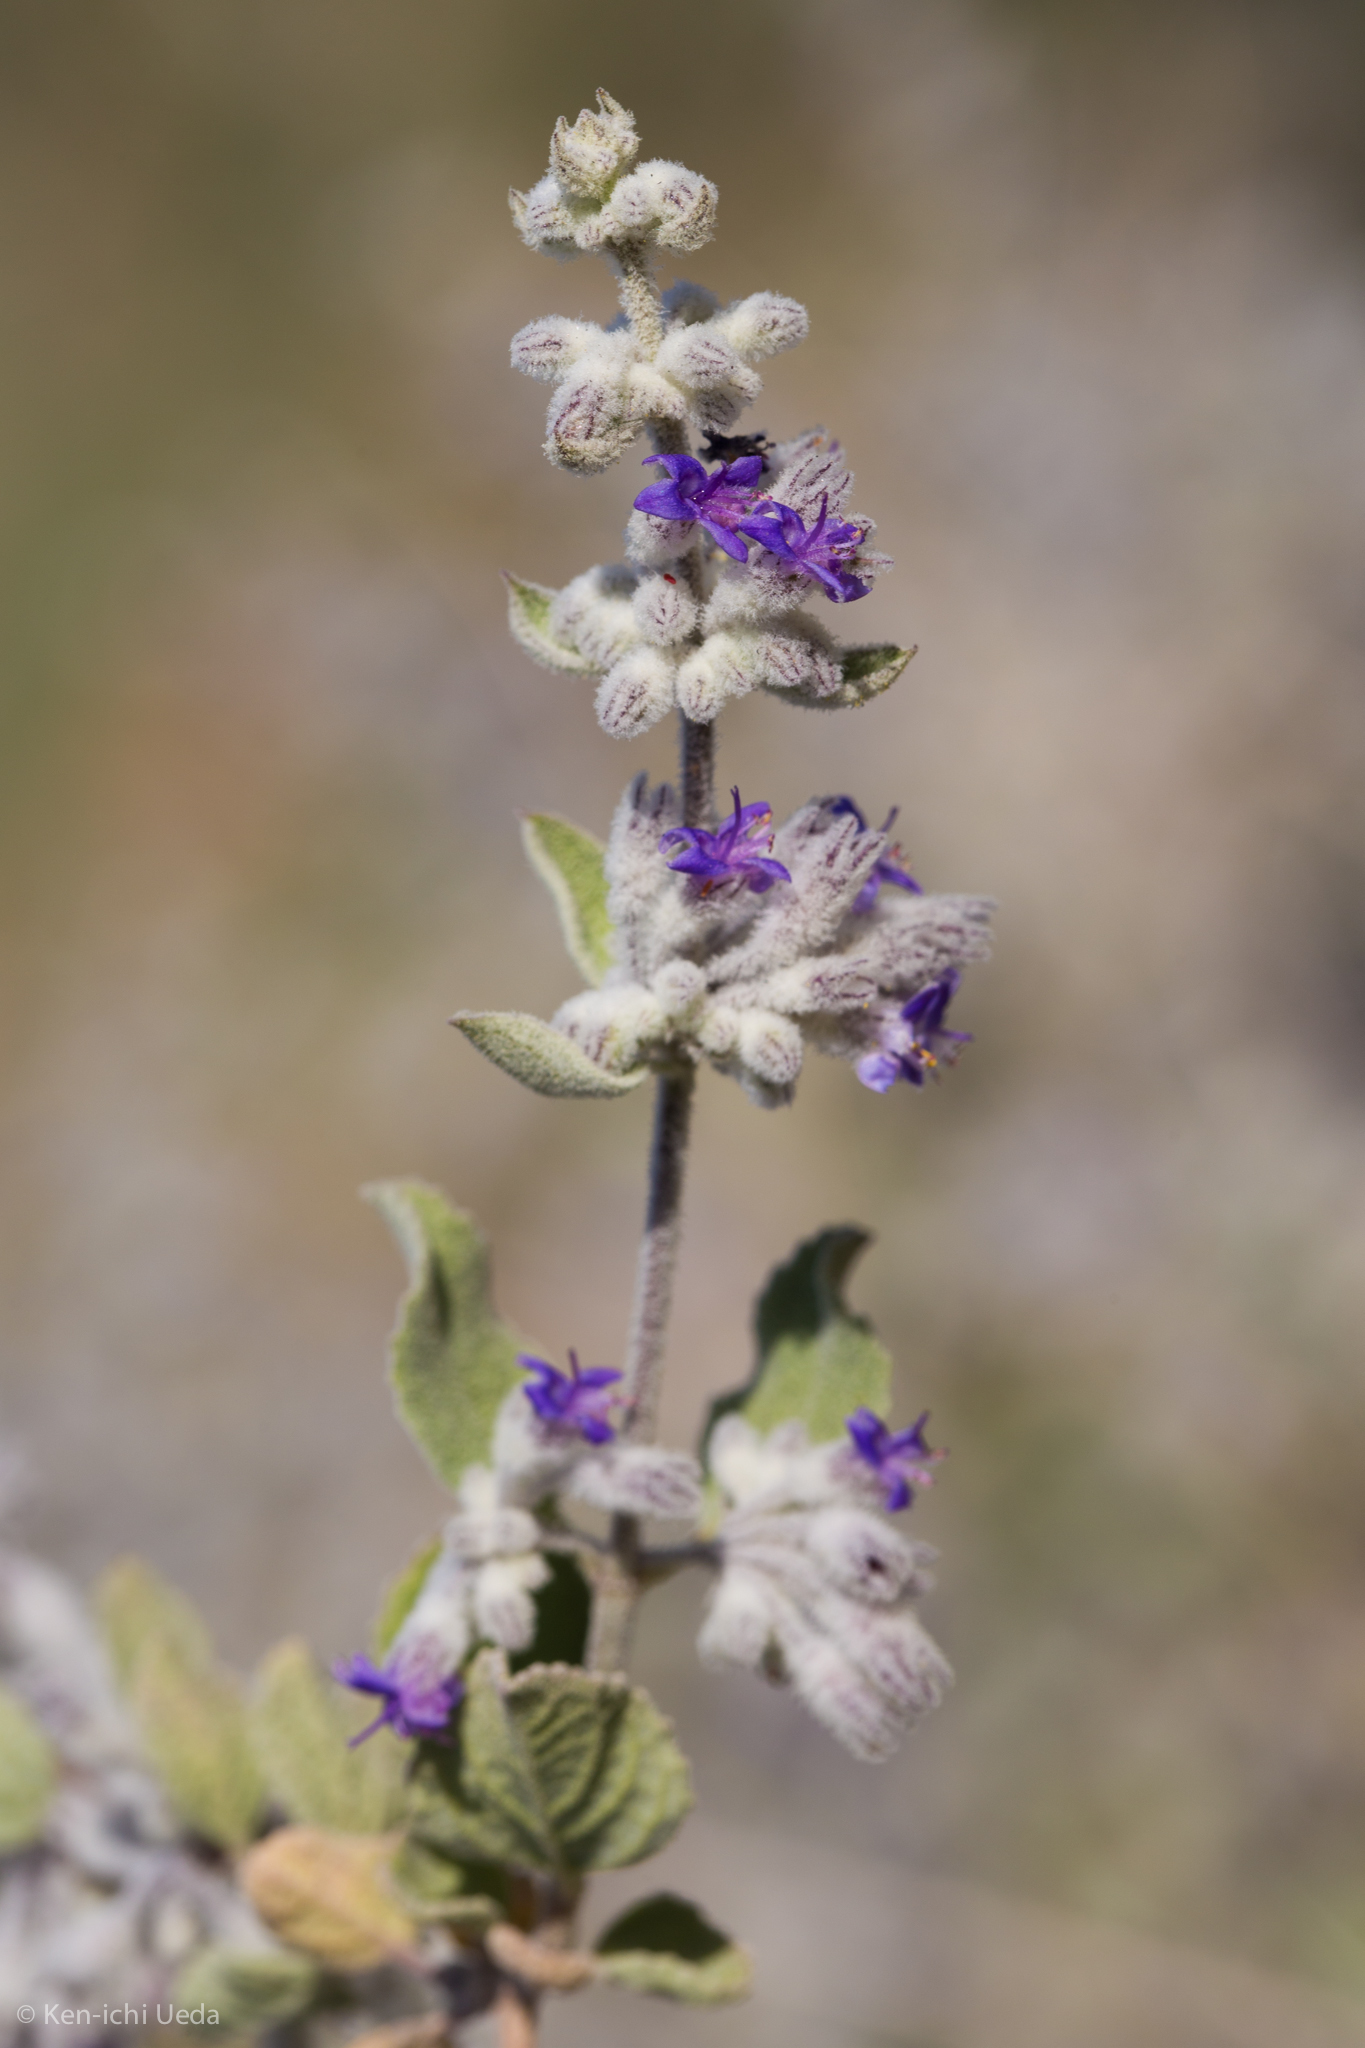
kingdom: Plantae
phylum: Tracheophyta
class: Magnoliopsida
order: Lamiales
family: Lamiaceae
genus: Condea
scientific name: Condea emoryi
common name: Chia
